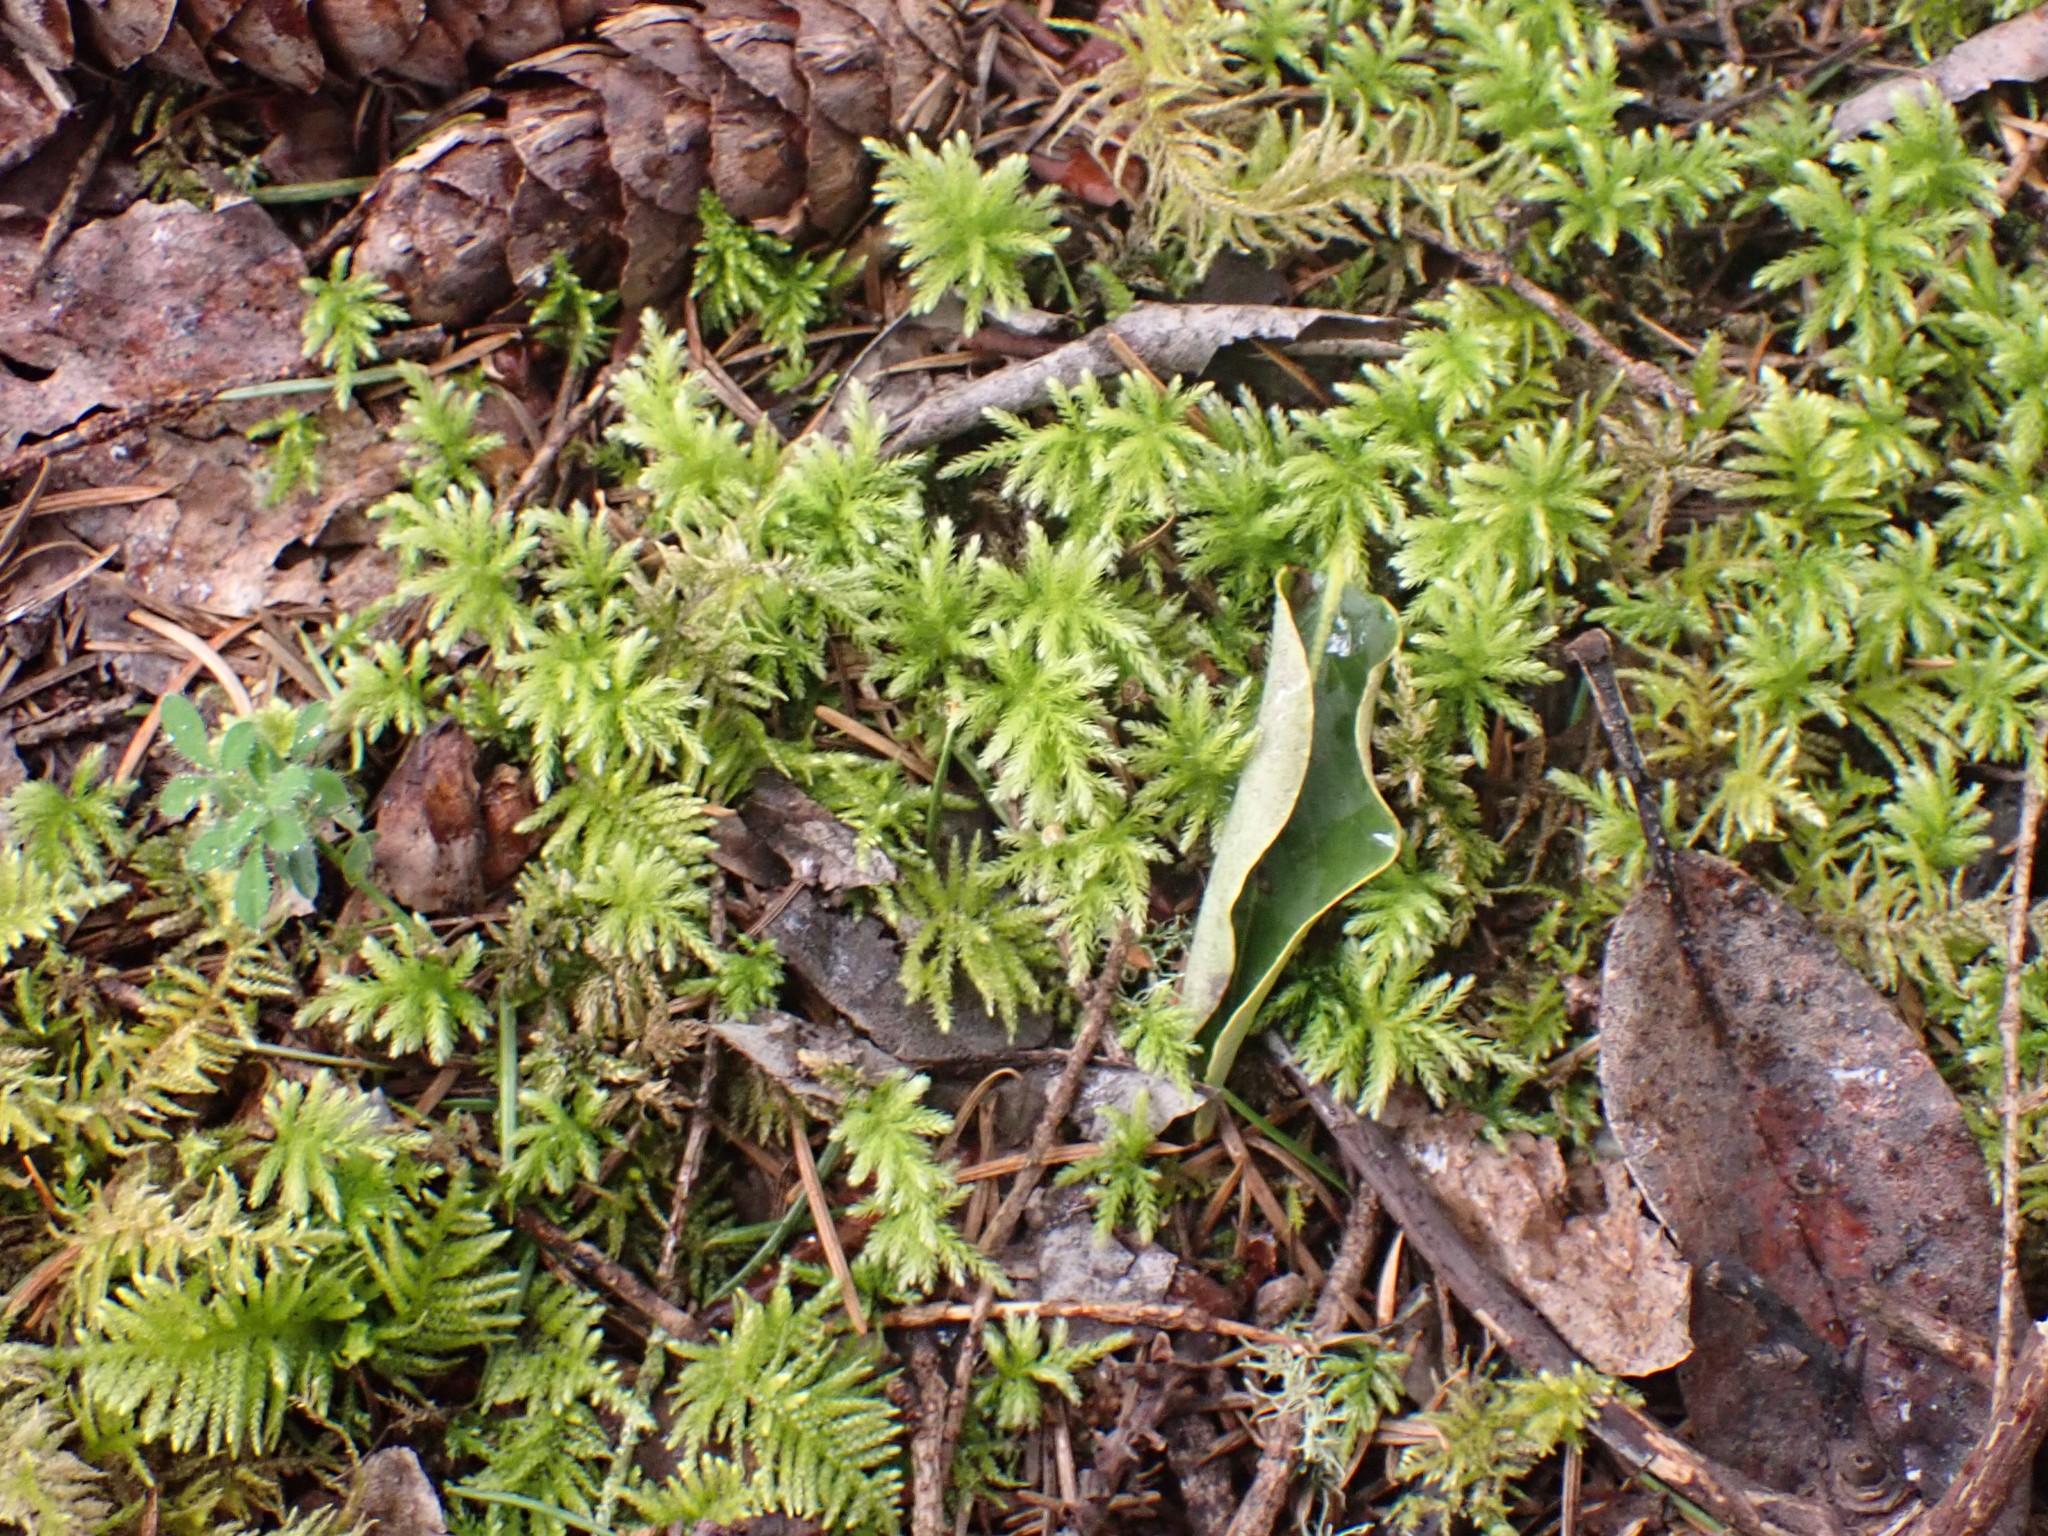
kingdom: Plantae
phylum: Bryophyta
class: Bryopsida
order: Bryales
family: Mniaceae
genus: Leucolepis
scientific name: Leucolepis acanthoneura
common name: Leucolepis umbrella moss
